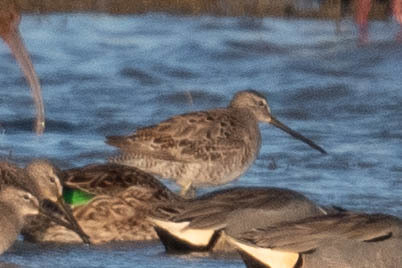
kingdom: Animalia
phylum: Chordata
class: Aves
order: Charadriiformes
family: Scolopacidae
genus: Limnodromus
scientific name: Limnodromus scolopaceus
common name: Long-billed dowitcher
